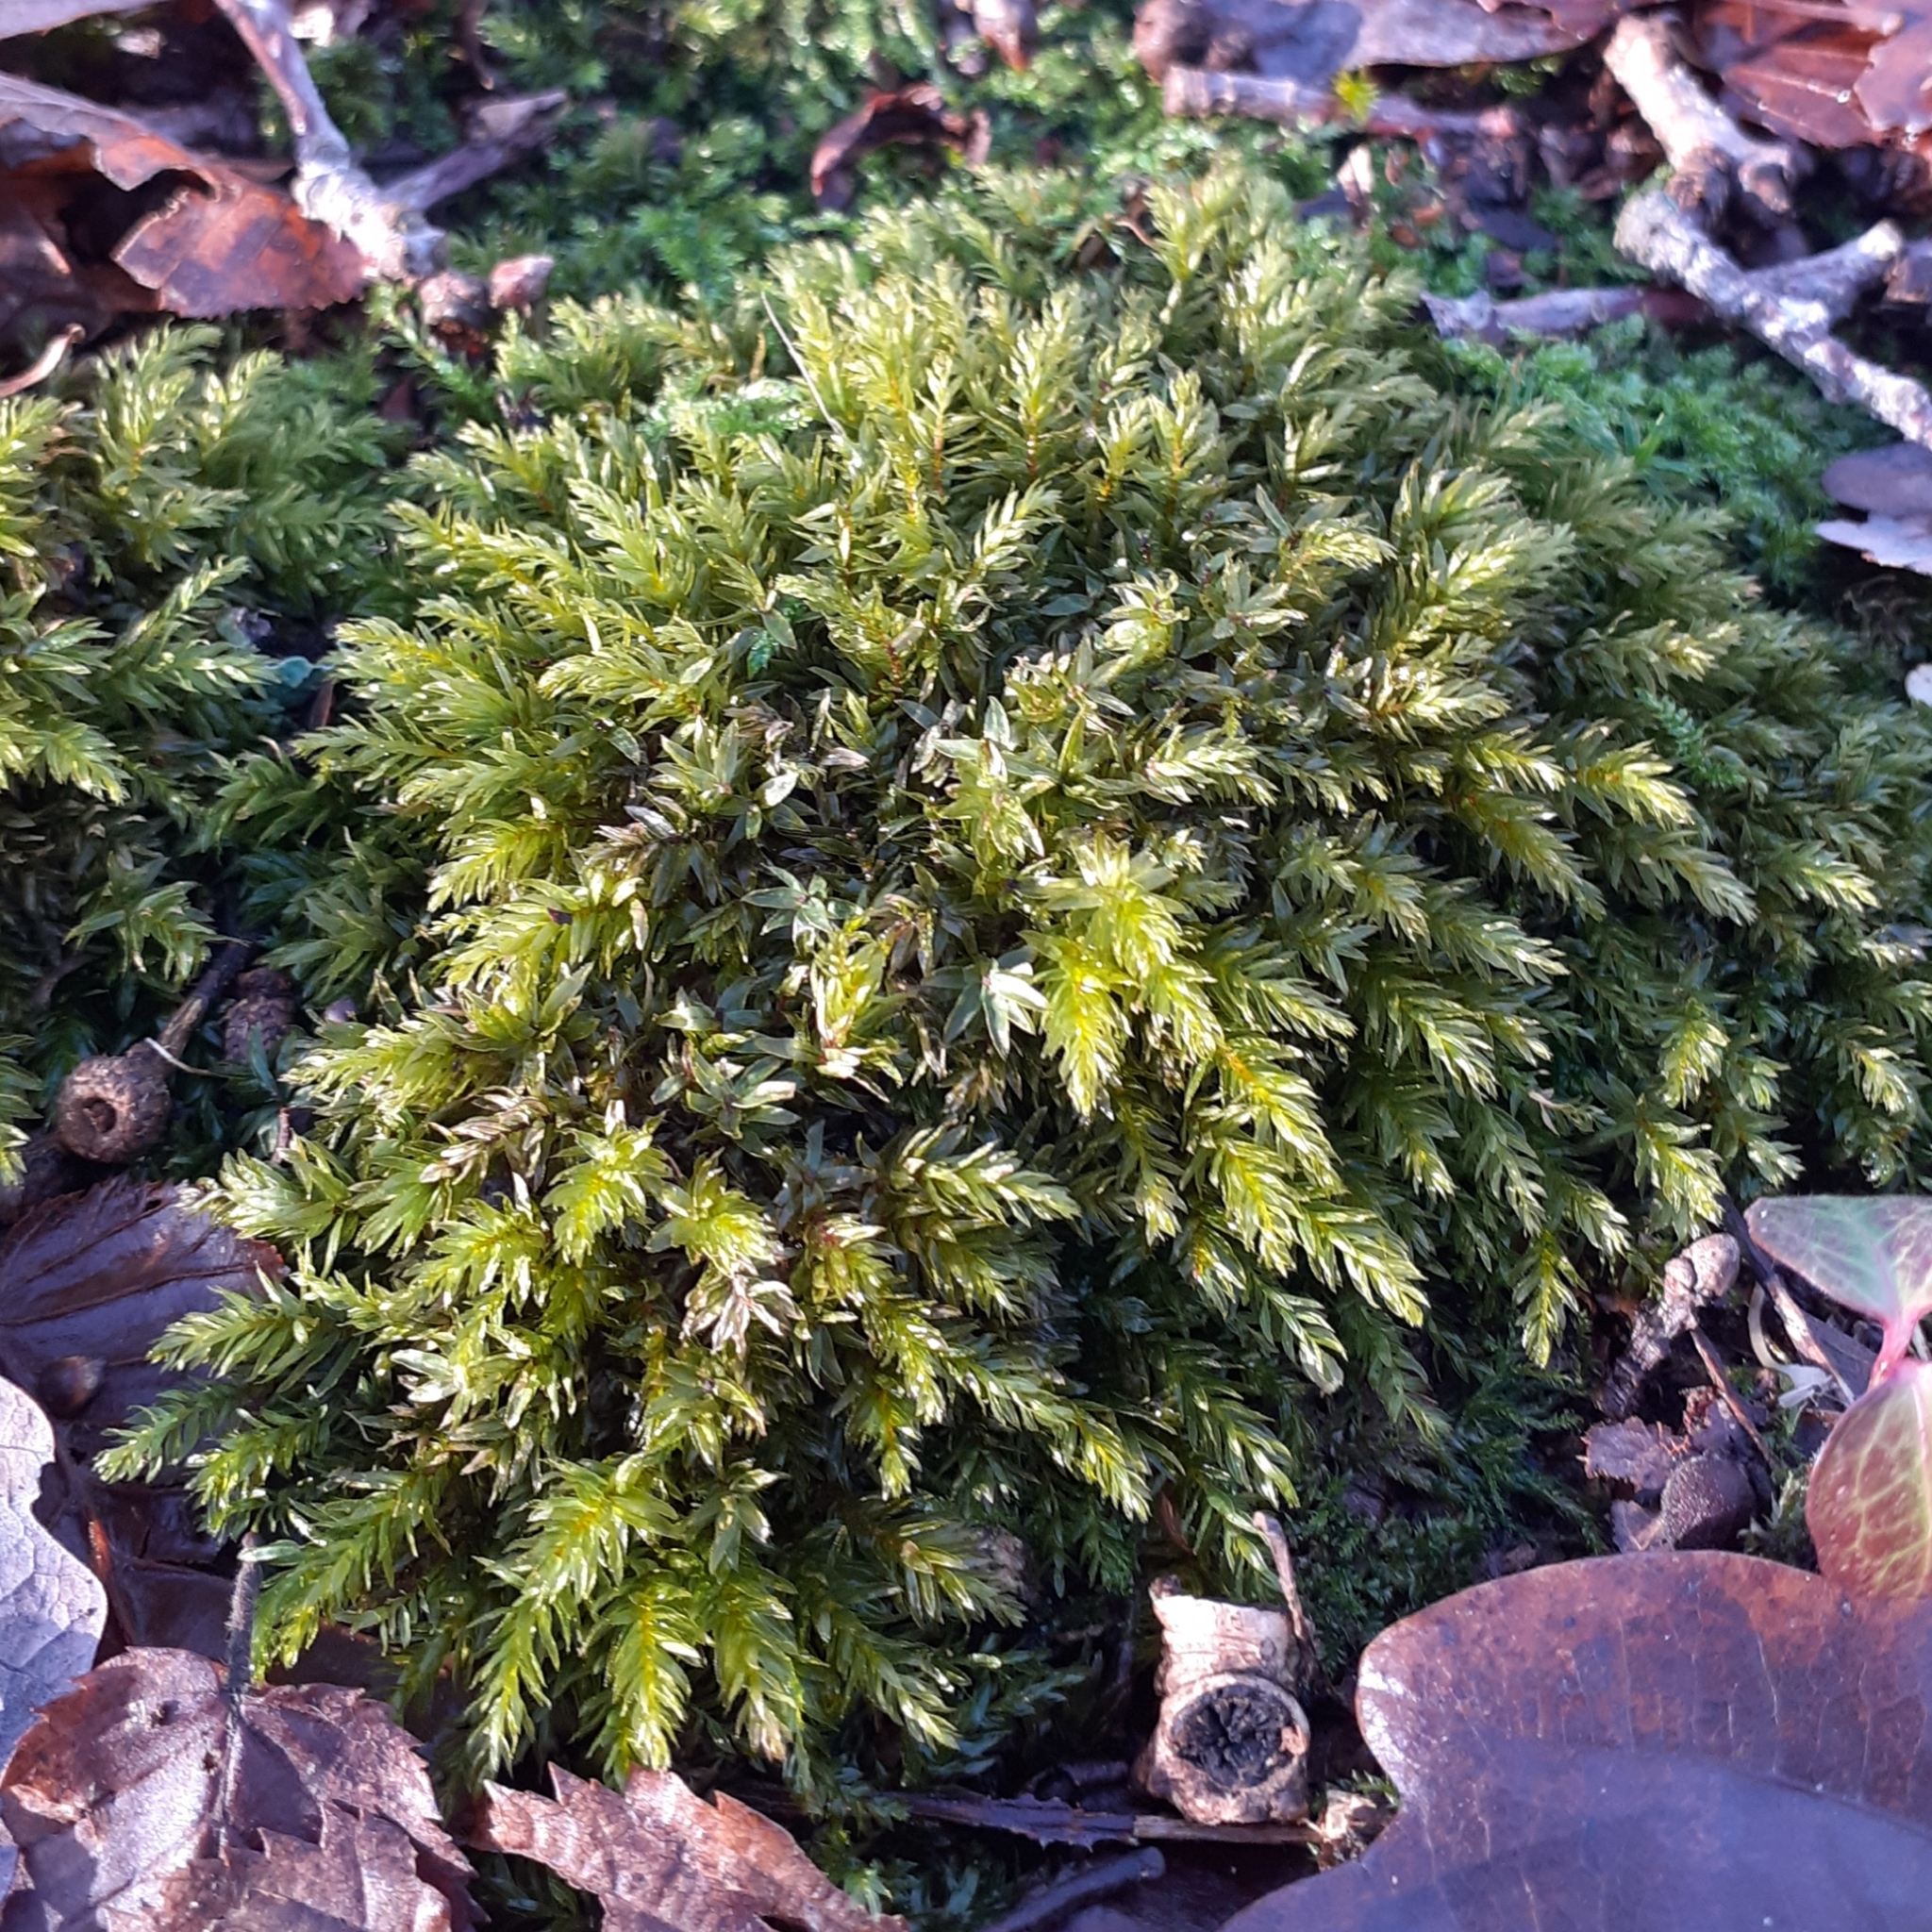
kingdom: Plantae
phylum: Bryophyta
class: Bryopsida
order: Bryales
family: Mniaceae
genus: Mnium
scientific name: Mnium hornum
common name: Swan's-neck leafy moss
